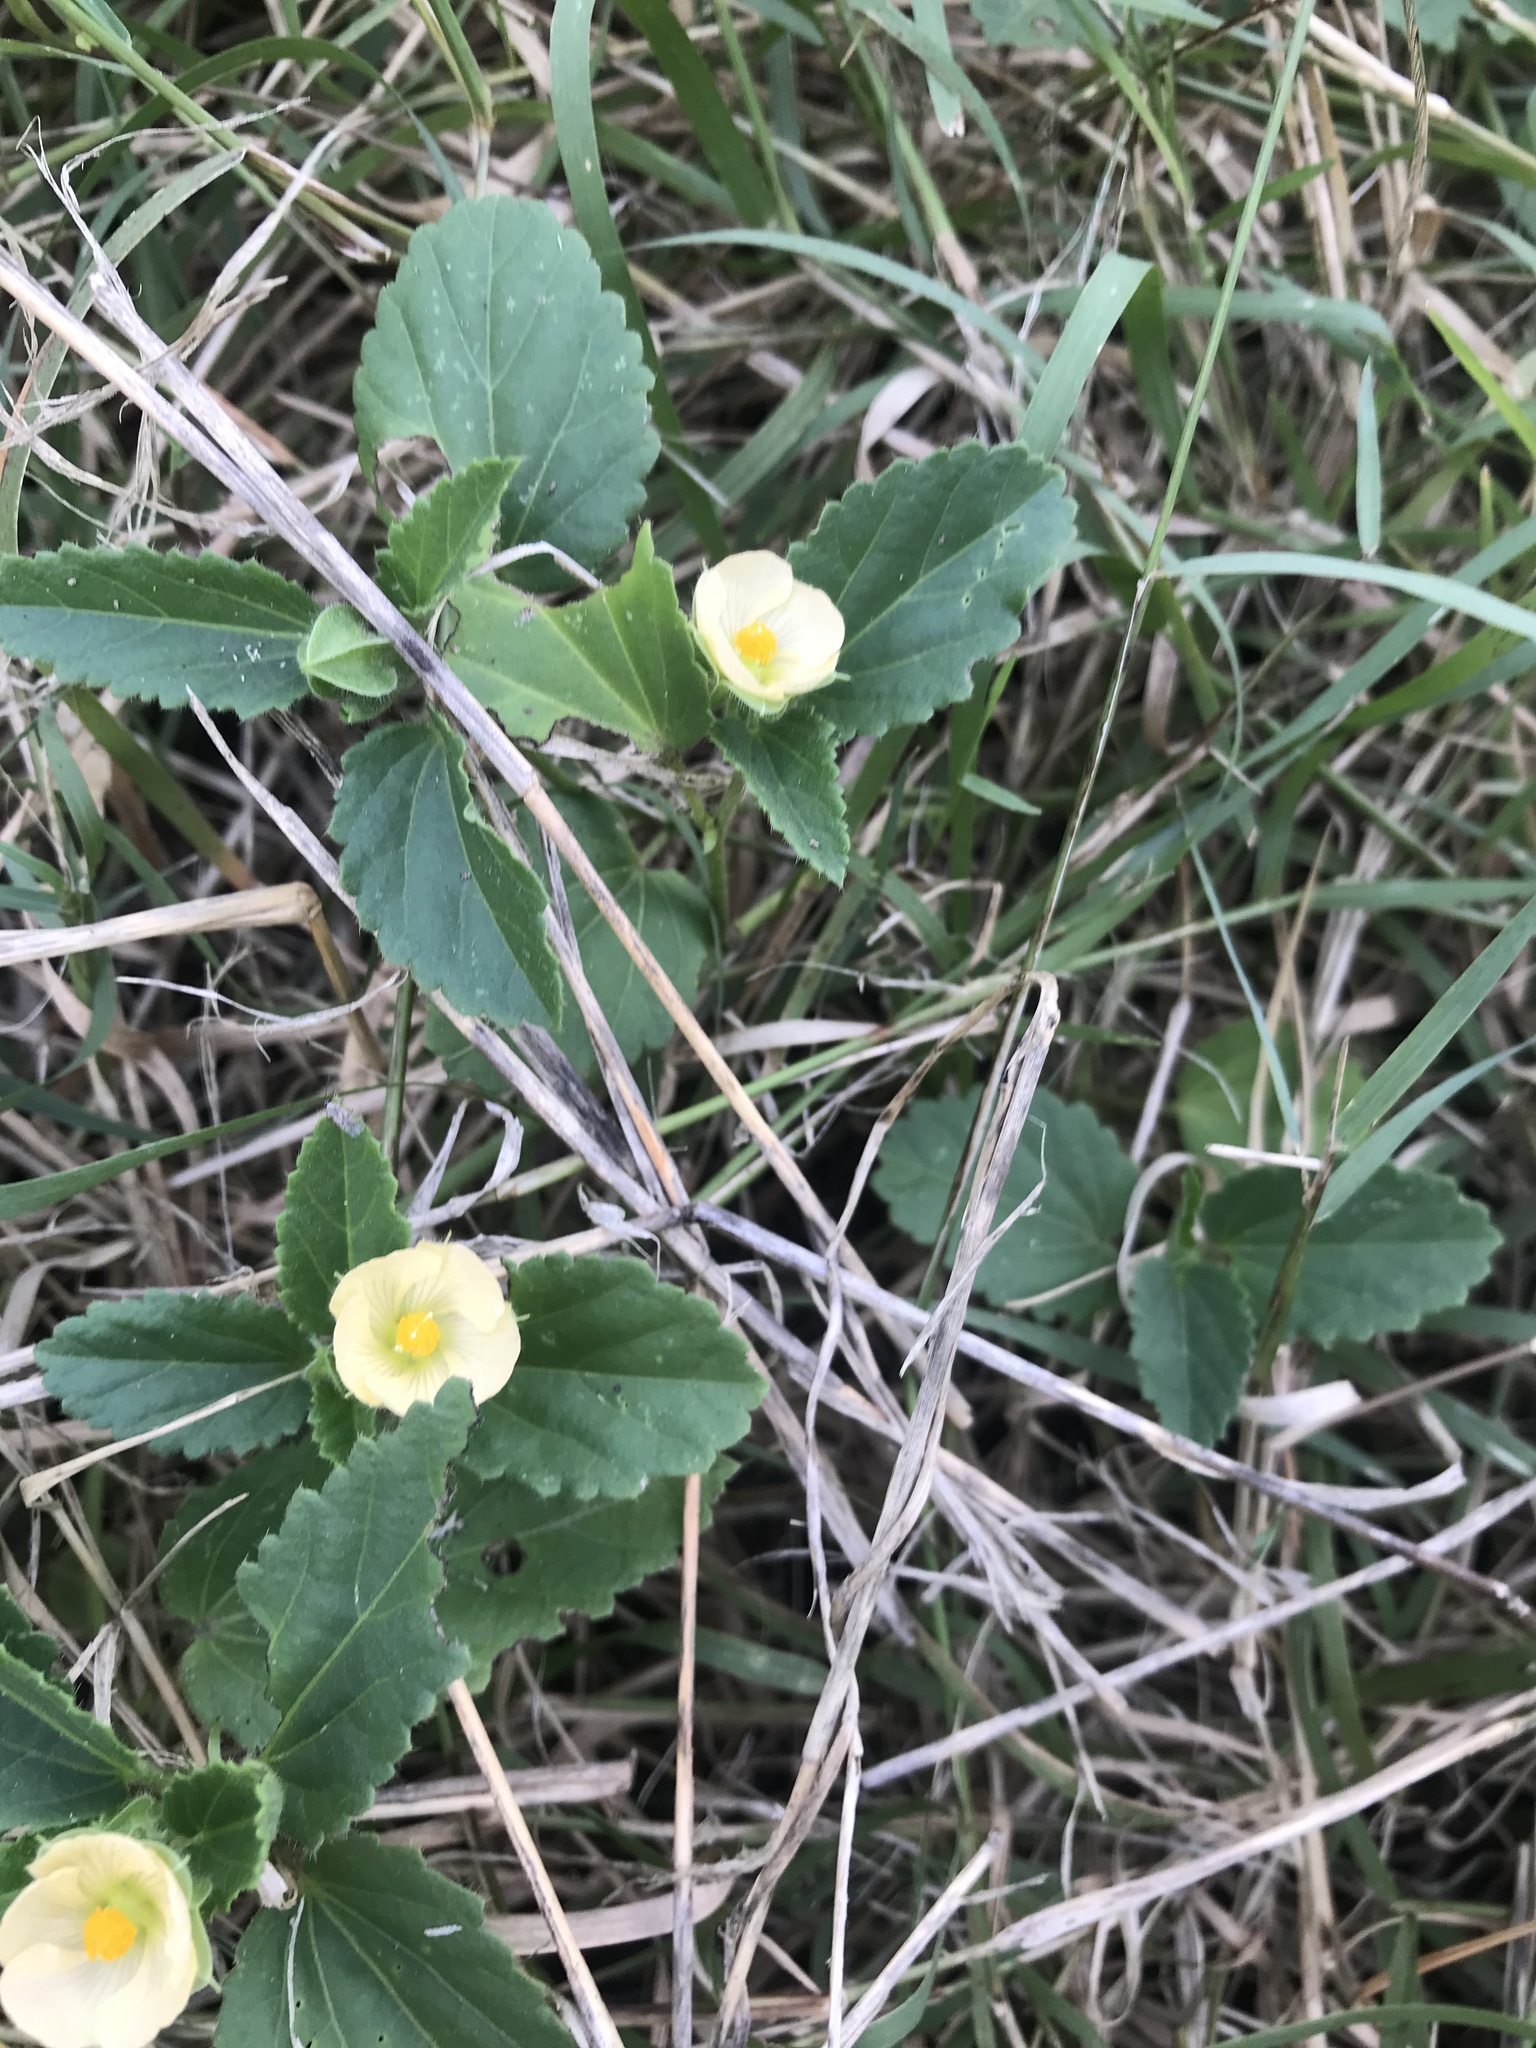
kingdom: Plantae
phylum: Tracheophyta
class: Magnoliopsida
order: Malvales
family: Malvaceae
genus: Rhynchosida
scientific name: Rhynchosida physocalyx
